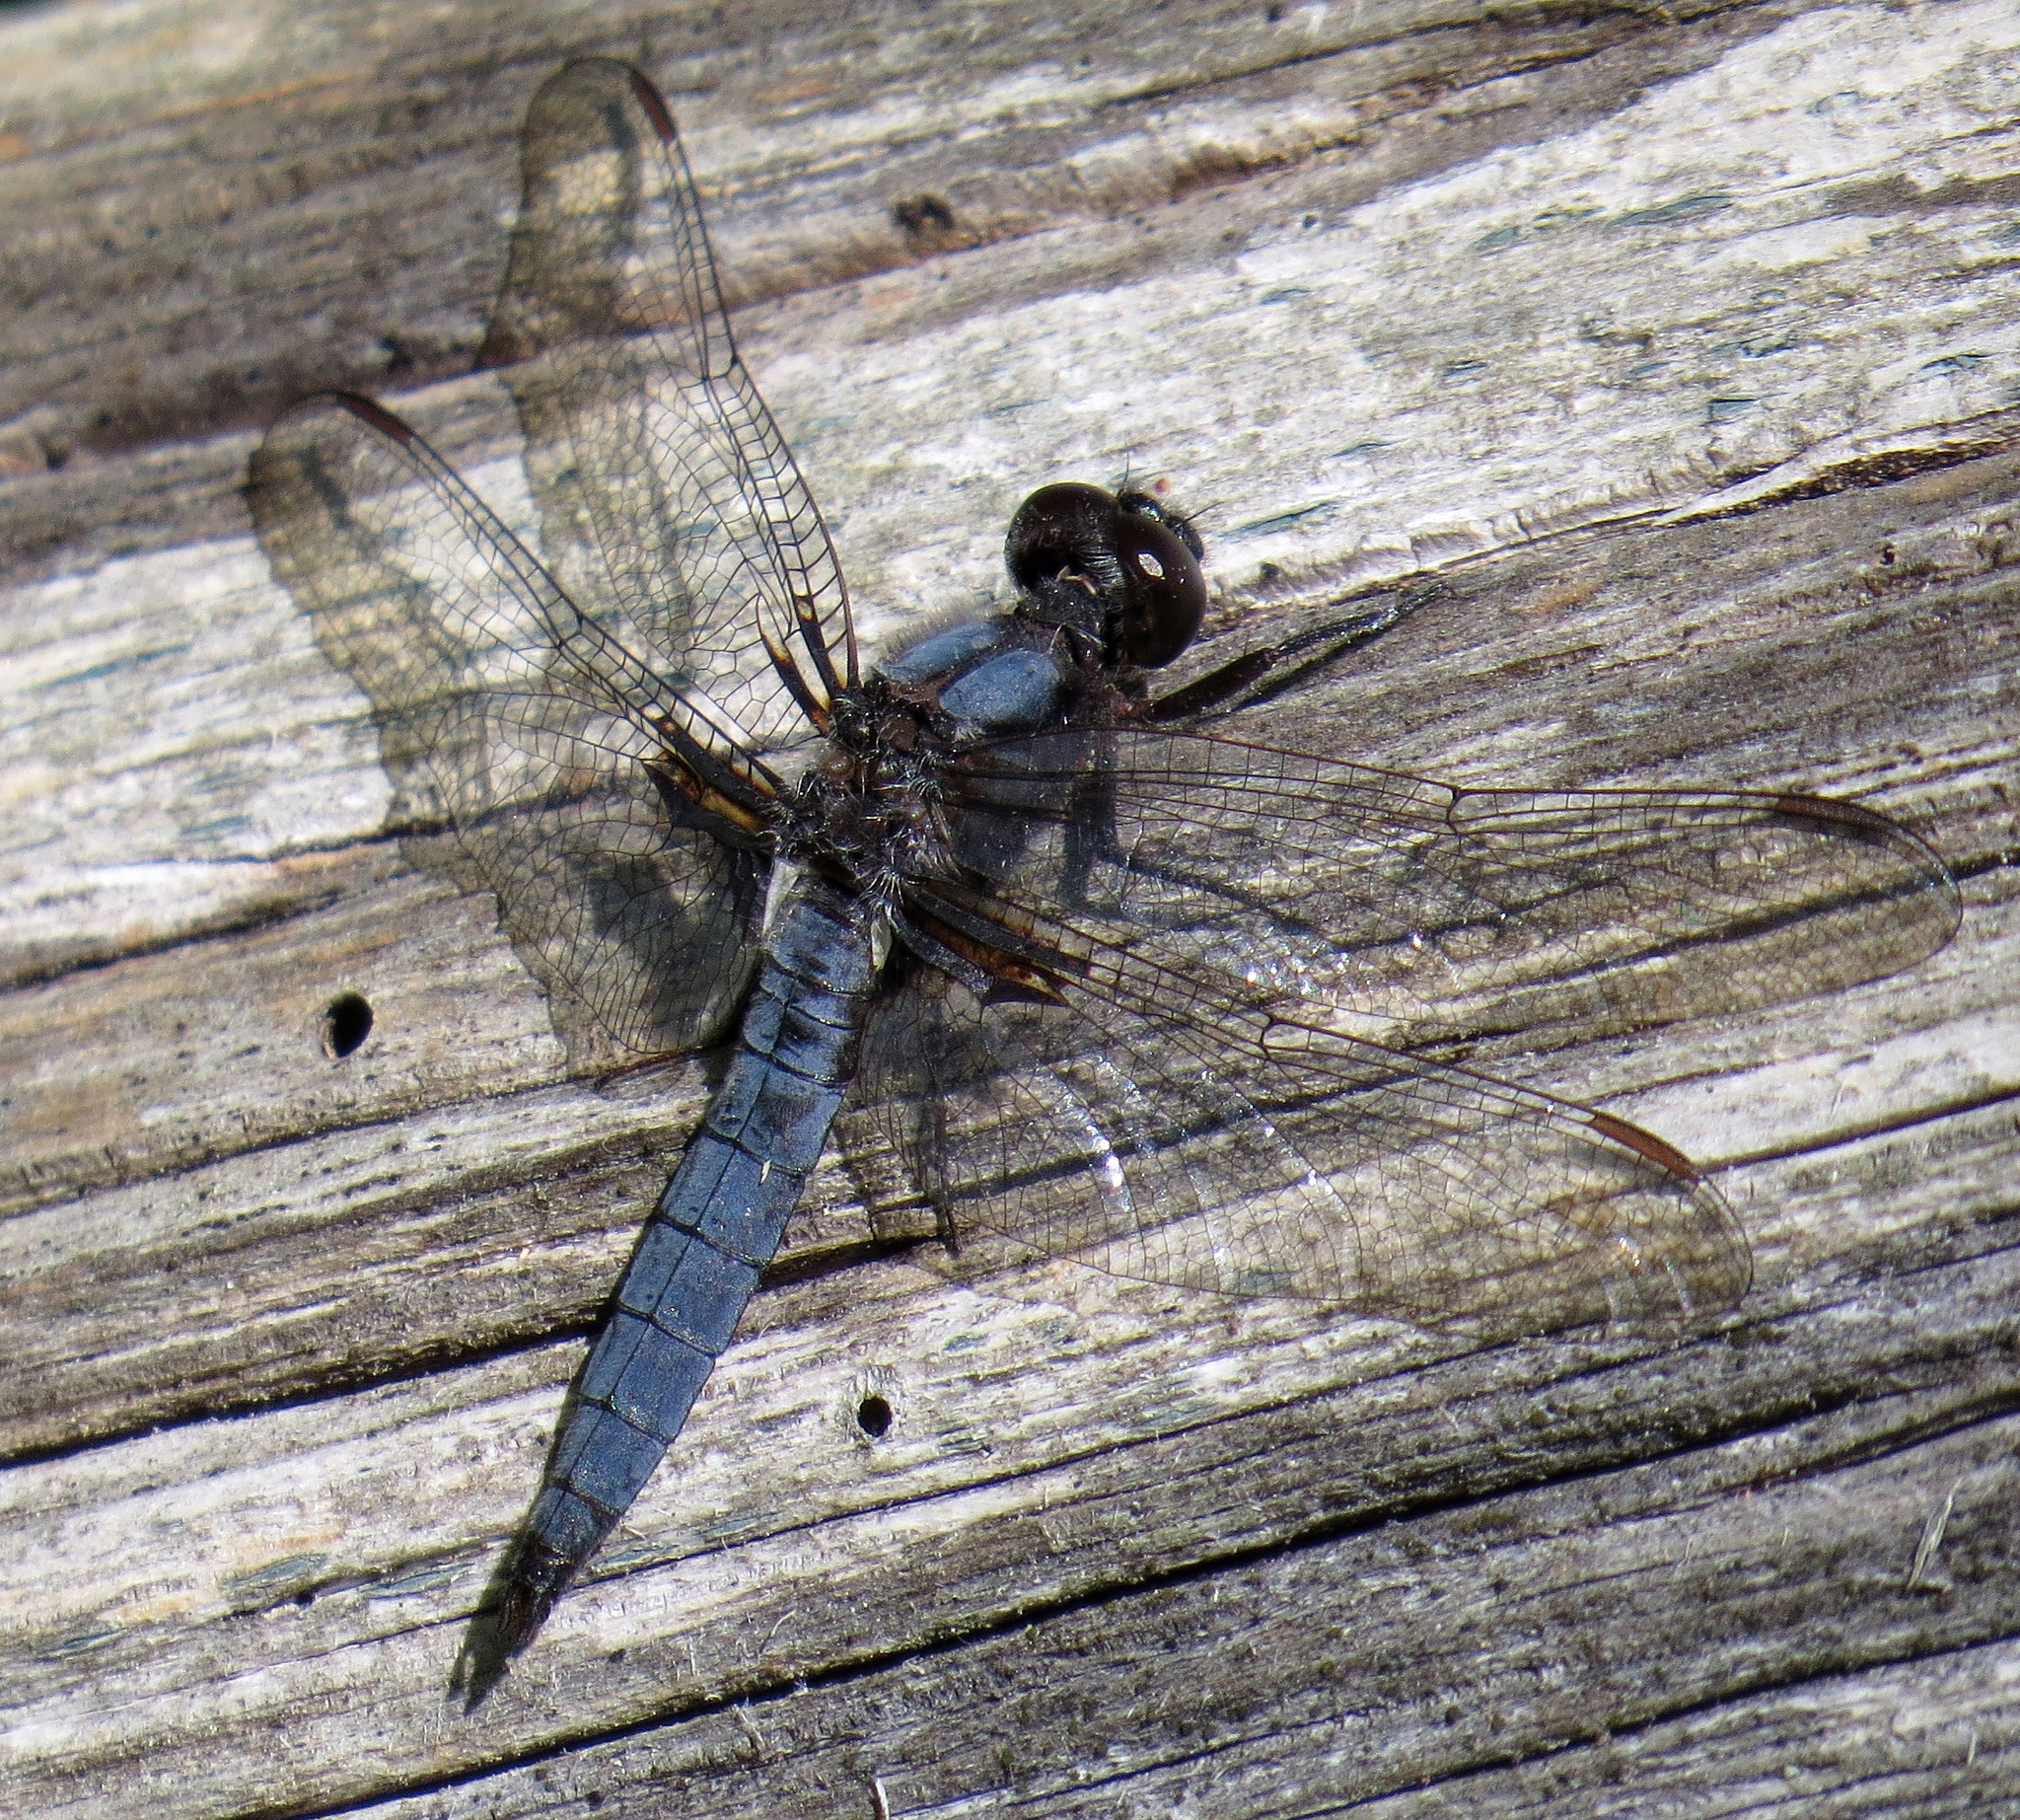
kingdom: Animalia
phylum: Arthropoda
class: Insecta
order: Odonata
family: Libellulidae
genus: Ladona
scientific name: Ladona deplanata
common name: Blue corporal
